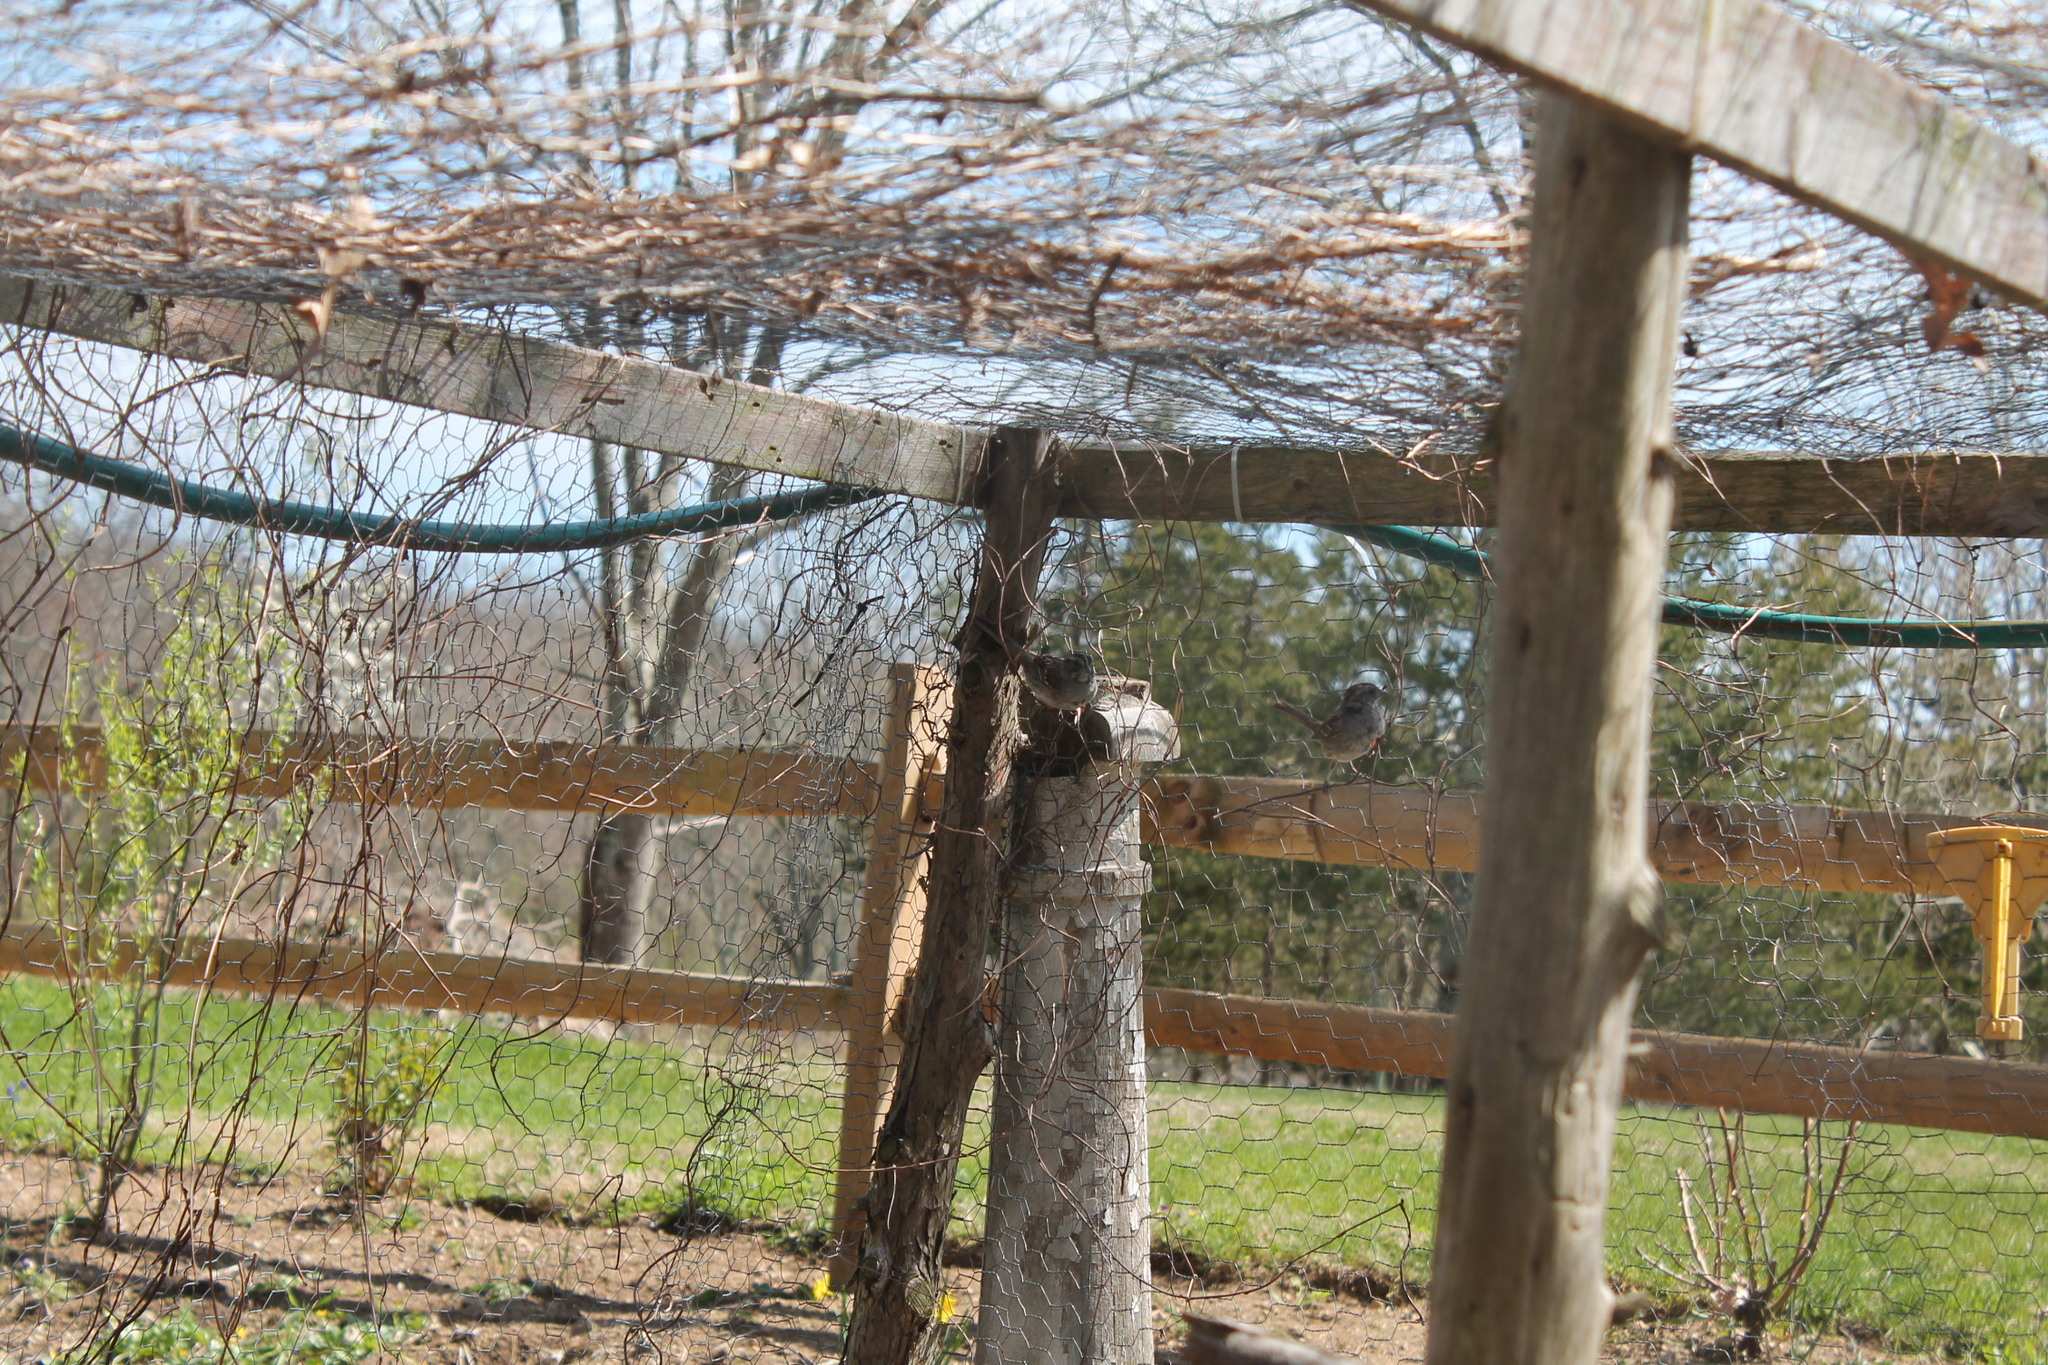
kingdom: Animalia
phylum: Chordata
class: Aves
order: Passeriformes
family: Passerellidae
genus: Zonotrichia
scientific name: Zonotrichia albicollis
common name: White-throated sparrow
